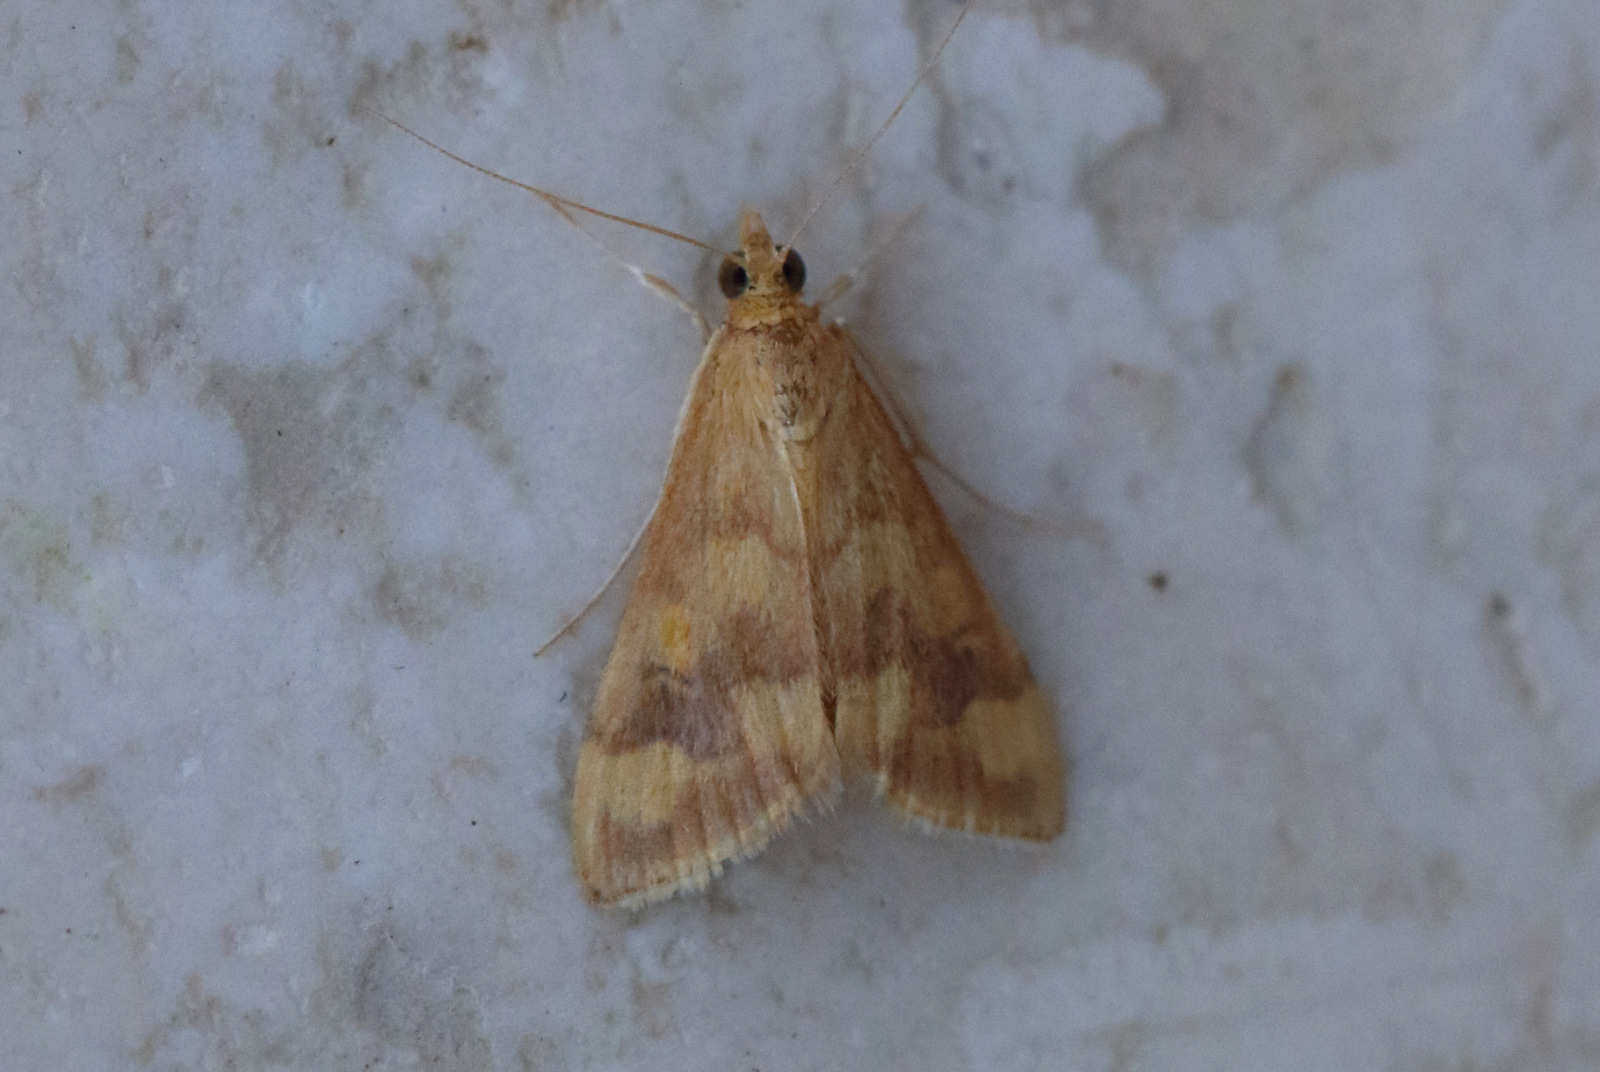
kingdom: Animalia
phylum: Arthropoda
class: Insecta
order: Lepidoptera
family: Crambidae
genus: Pyrausta
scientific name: Pyrausta phoenicealis
